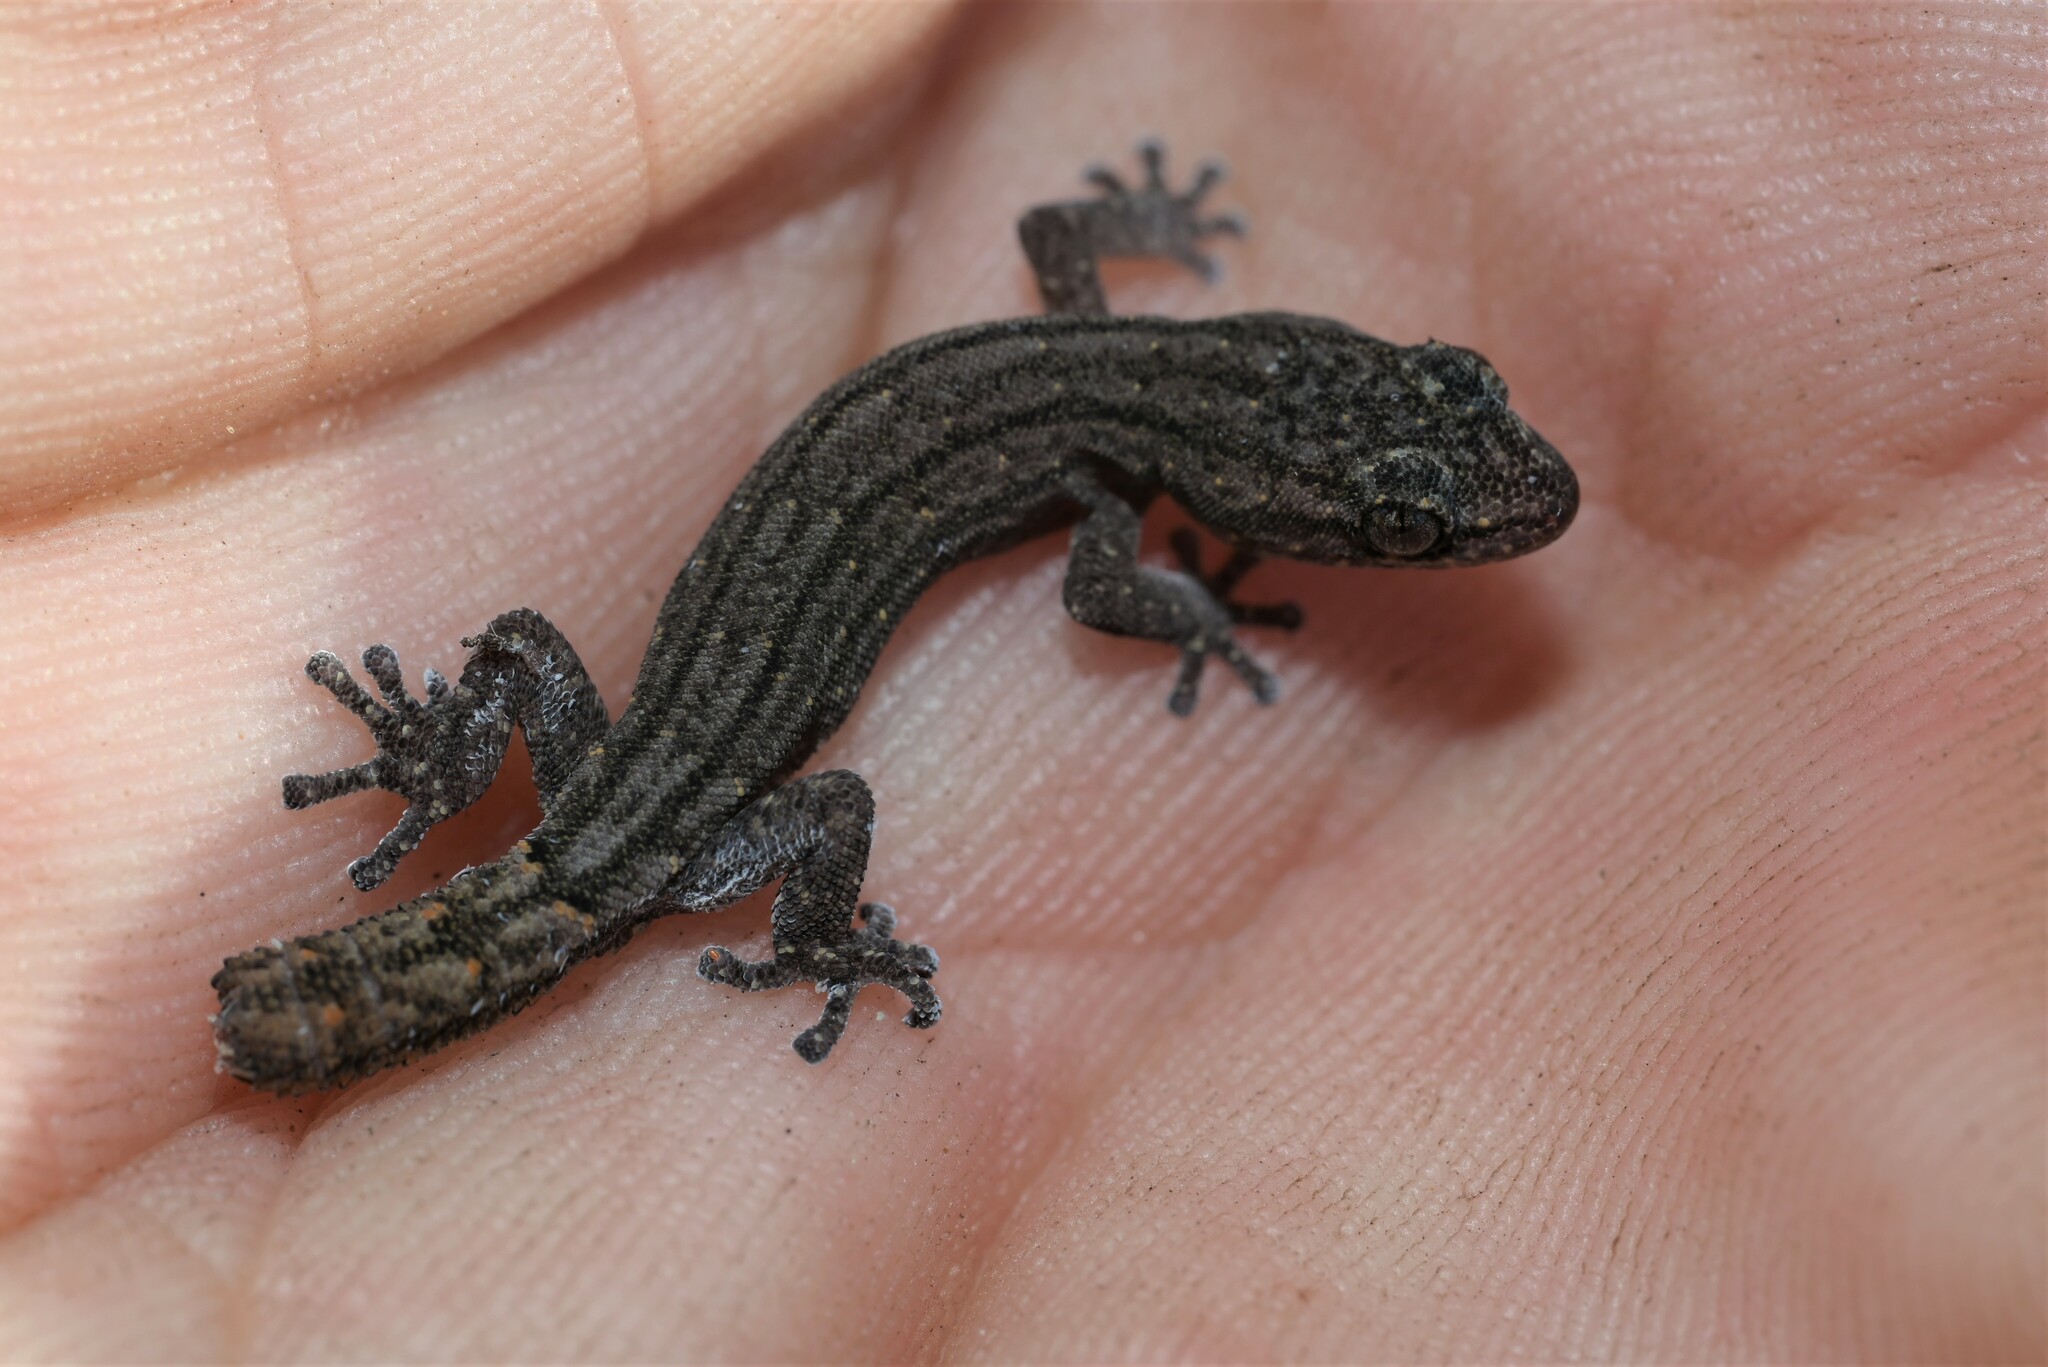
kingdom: Animalia
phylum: Chordata
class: Squamata
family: Gekkonidae
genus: Goggia
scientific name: Goggia lineata
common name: Striped dwarf leaf-toed gecko
